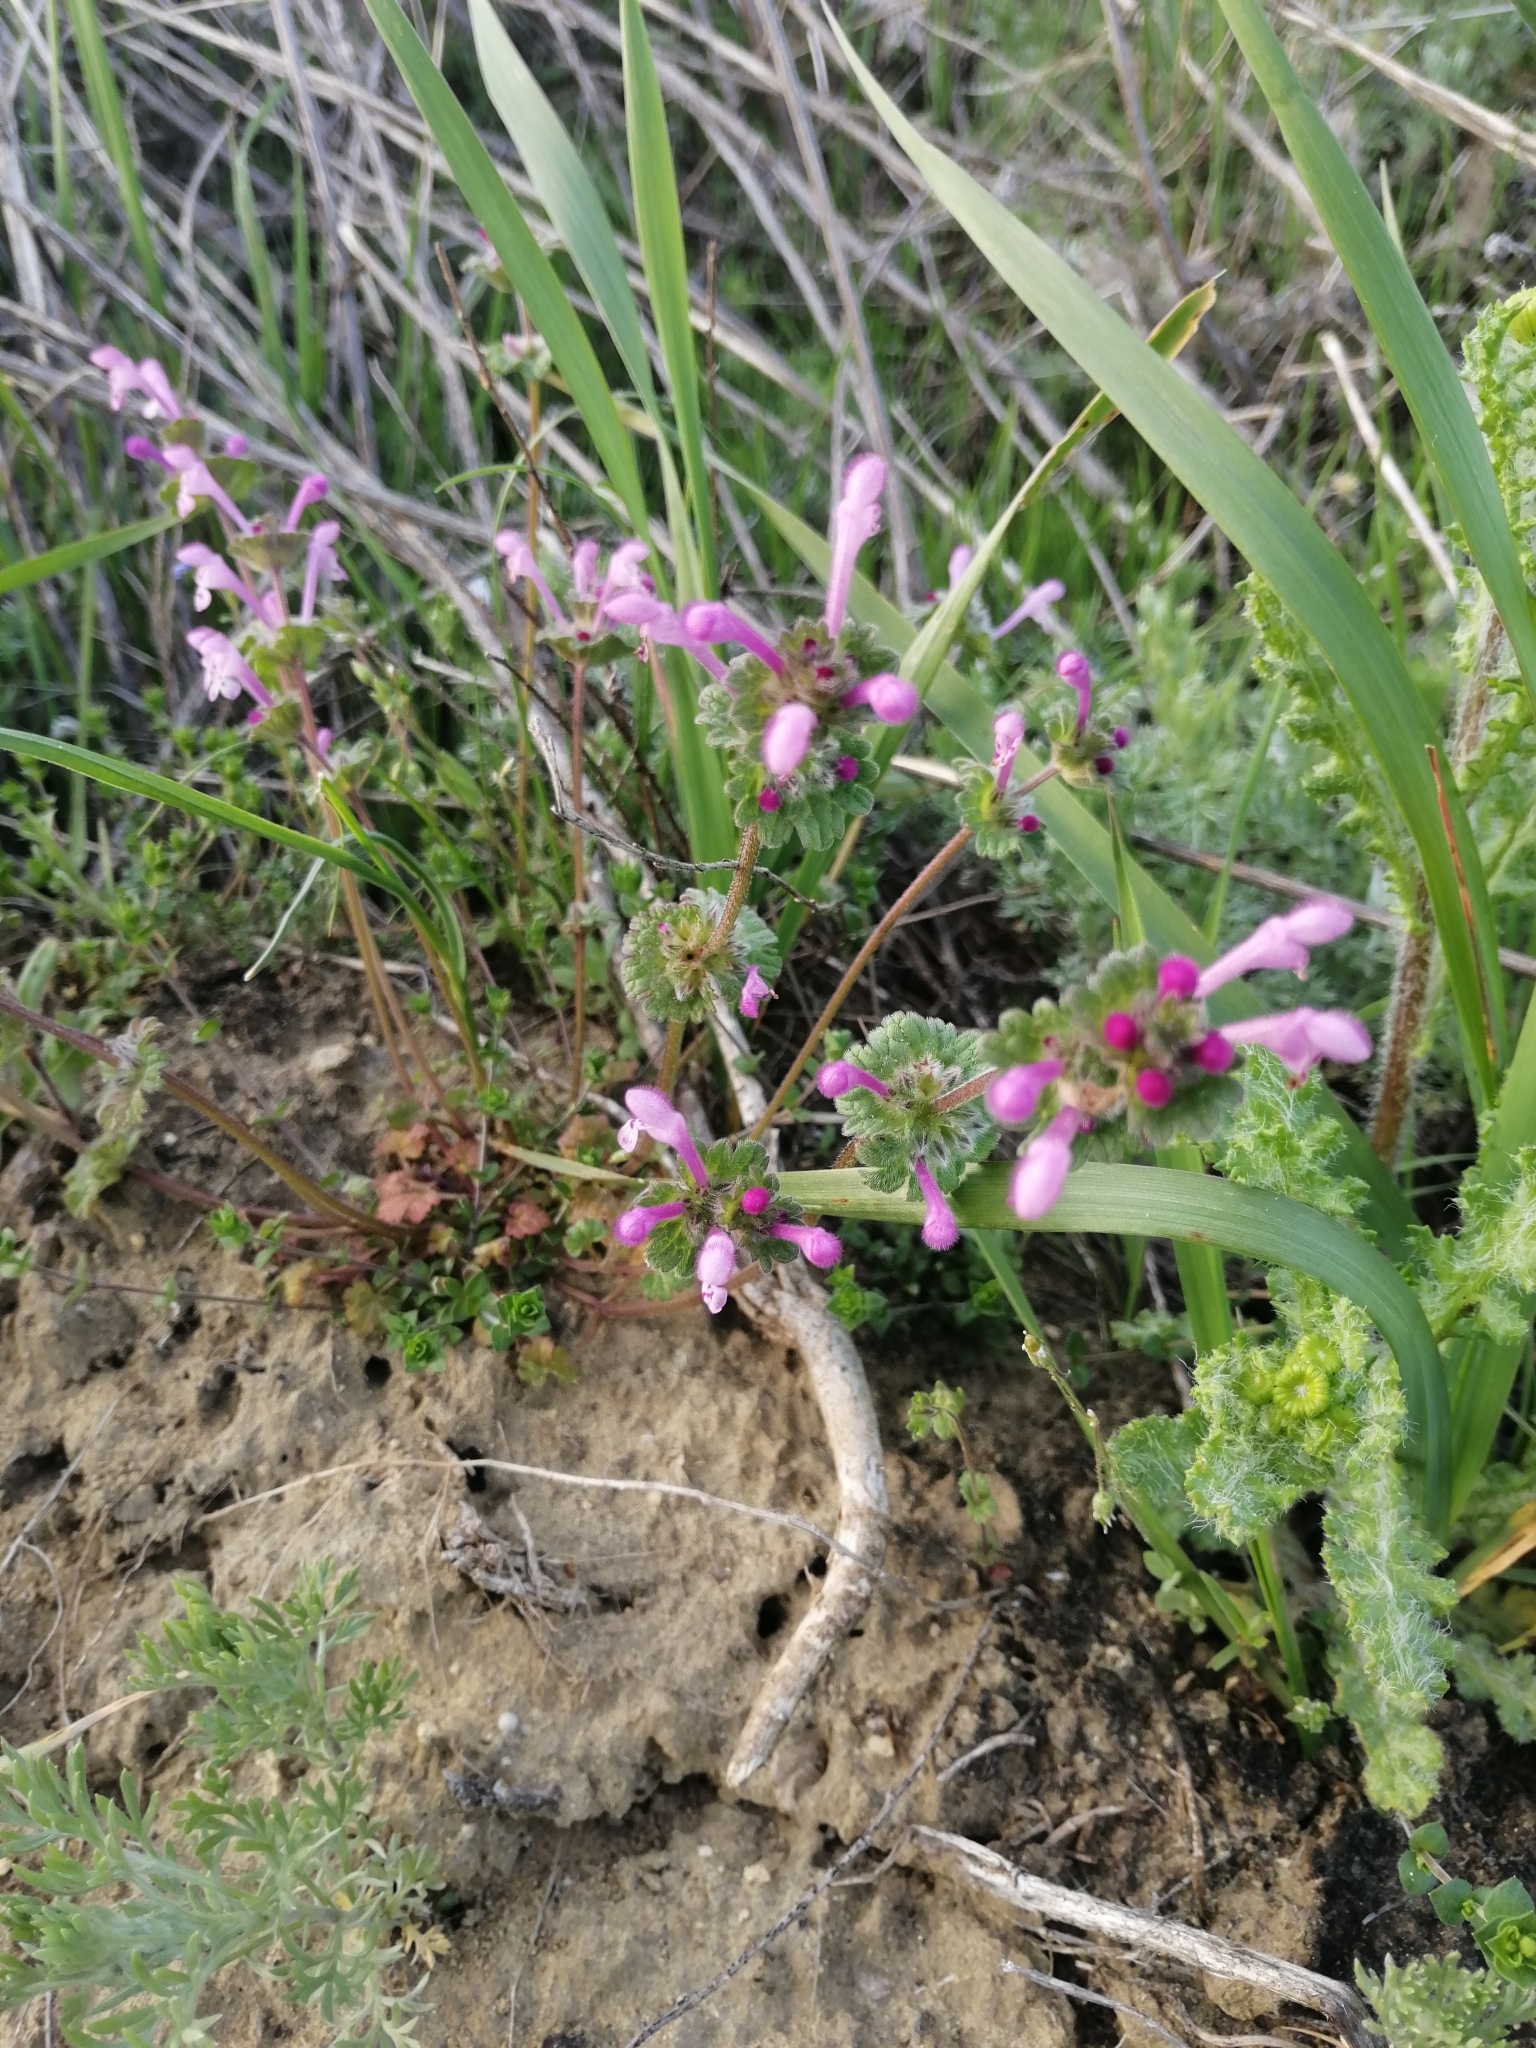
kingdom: Plantae
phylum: Tracheophyta
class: Magnoliopsida
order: Lamiales
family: Lamiaceae
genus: Lamium
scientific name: Lamium amplexicaule
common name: Henbit dead-nettle
